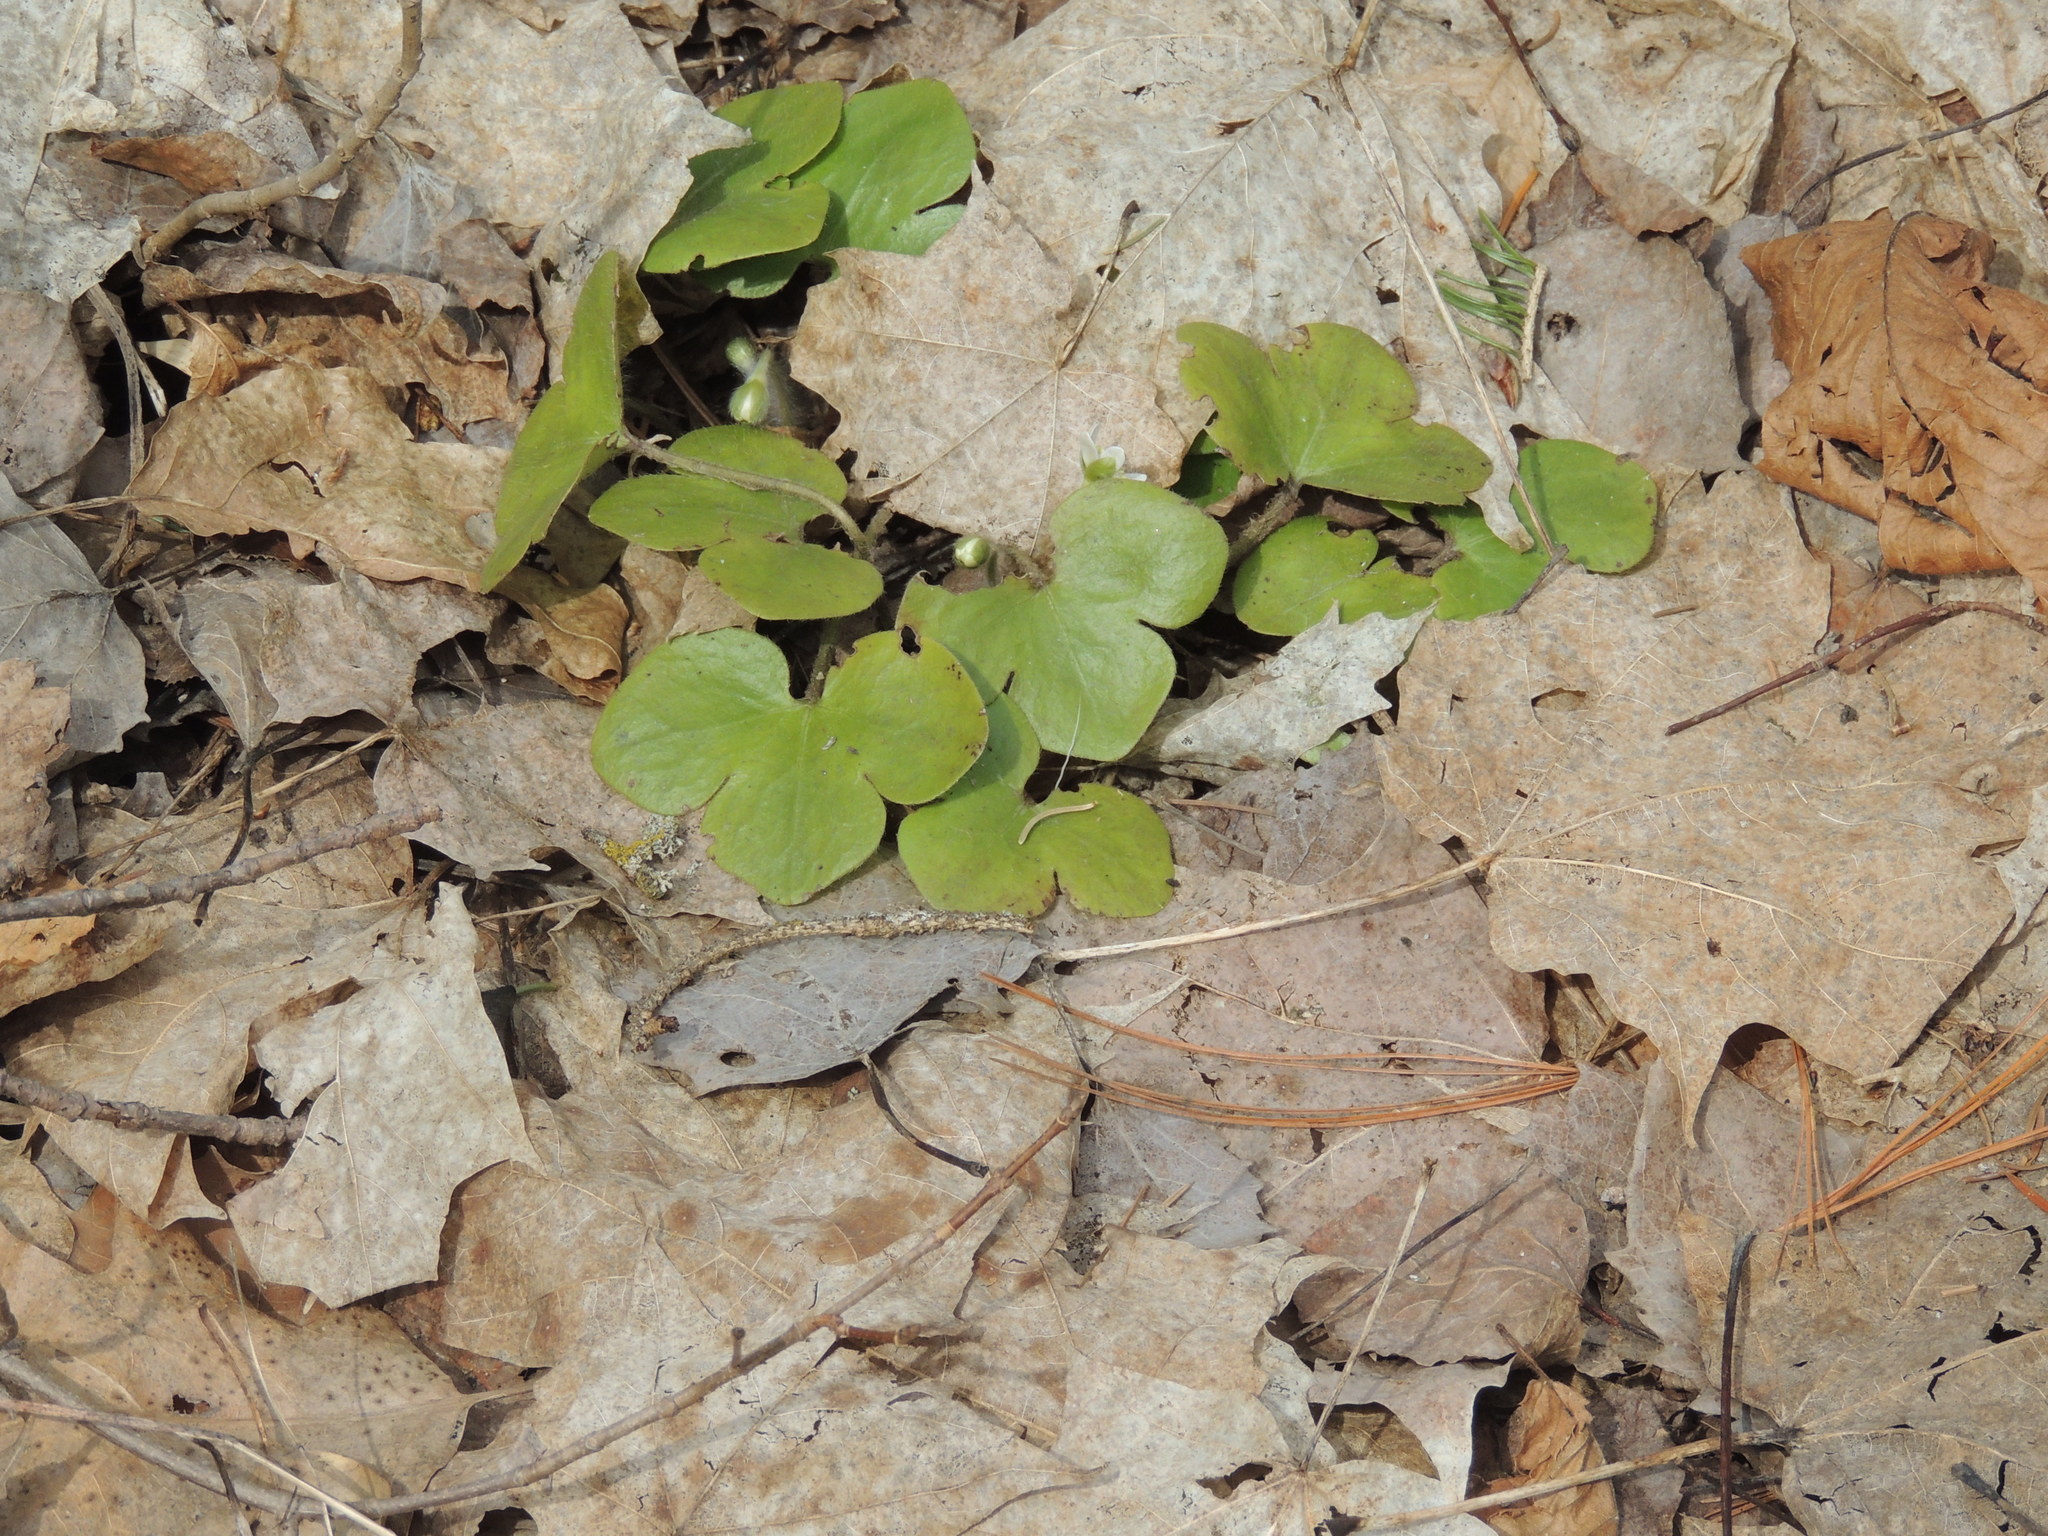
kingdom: Plantae
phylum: Tracheophyta
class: Magnoliopsida
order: Ranunculales
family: Ranunculaceae
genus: Hepatica
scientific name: Hepatica americana
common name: American hepatica
